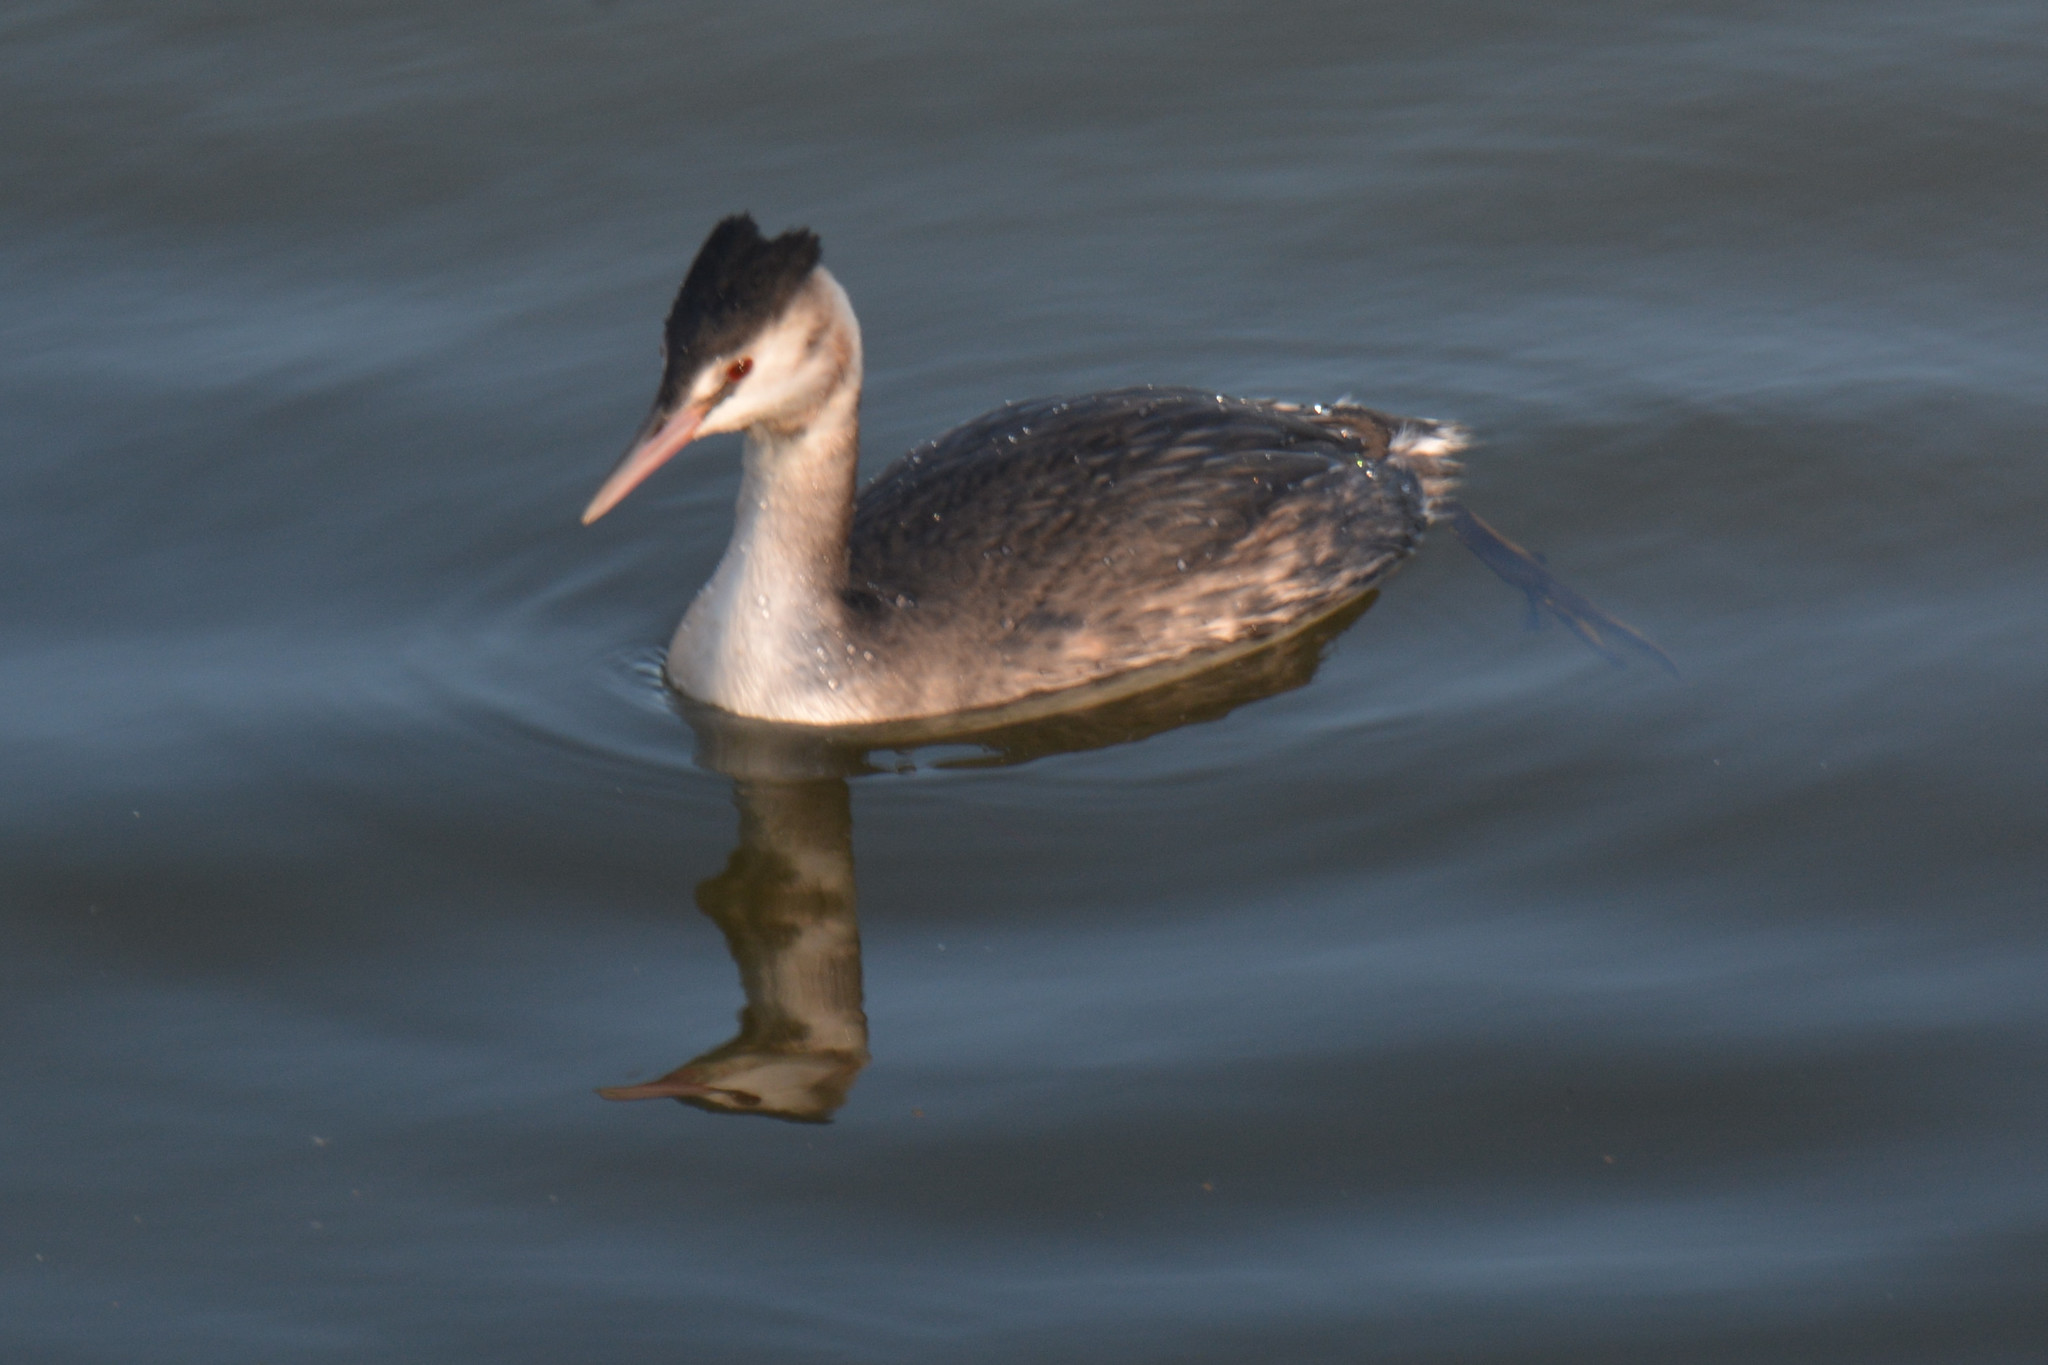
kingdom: Animalia
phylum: Chordata
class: Aves
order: Podicipediformes
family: Podicipedidae
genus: Podiceps
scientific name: Podiceps cristatus
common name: Great crested grebe
